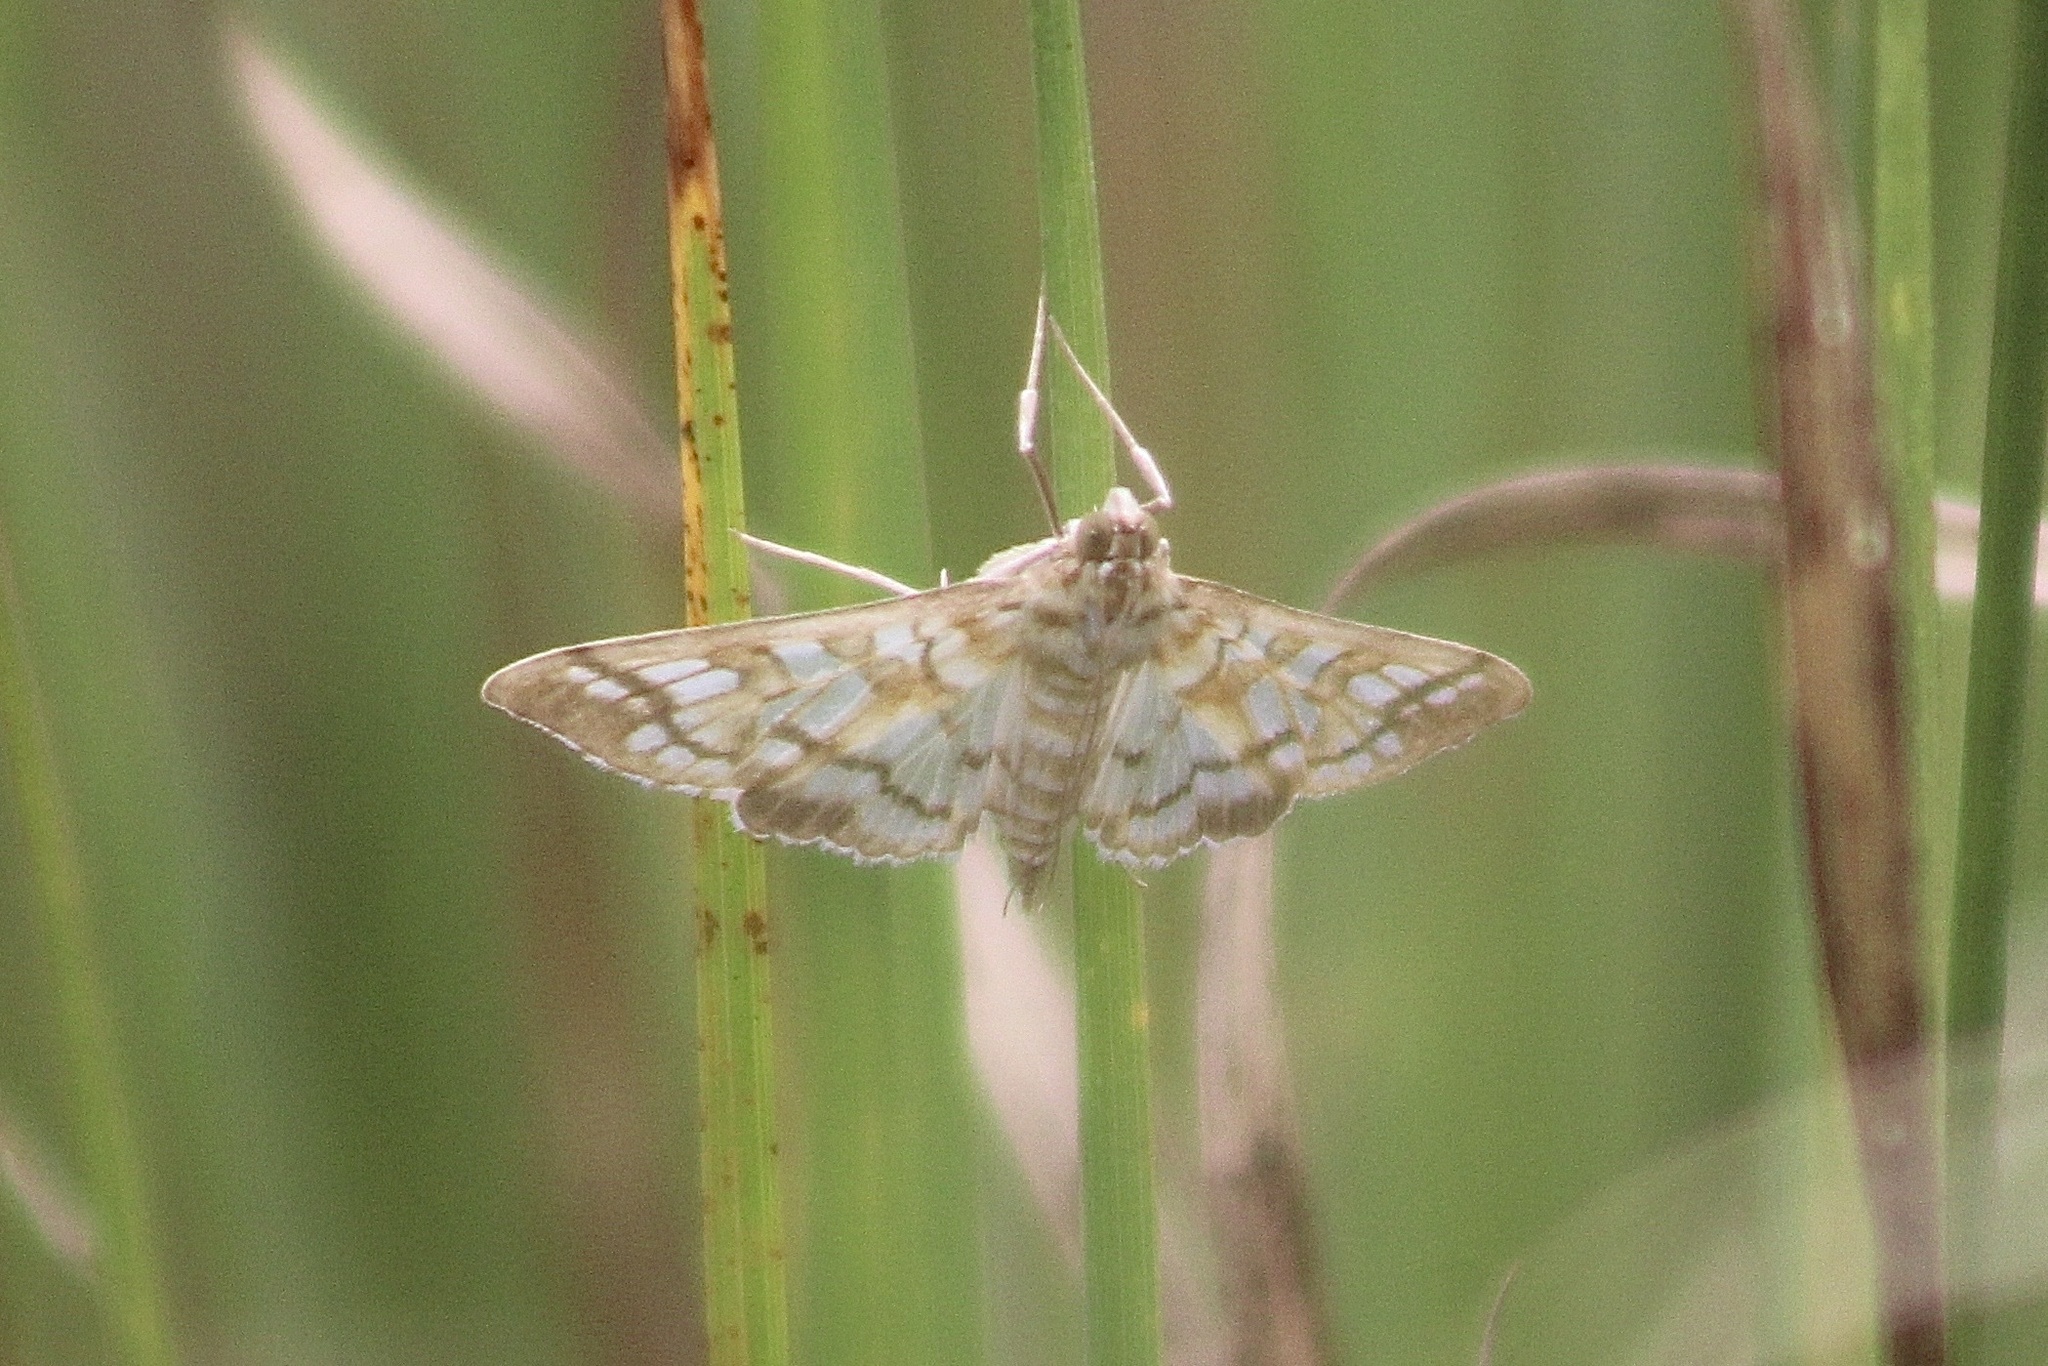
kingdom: Animalia
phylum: Arthropoda
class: Insecta
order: Lepidoptera
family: Crambidae
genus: Epipagis
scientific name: Epipagis fenestralis
